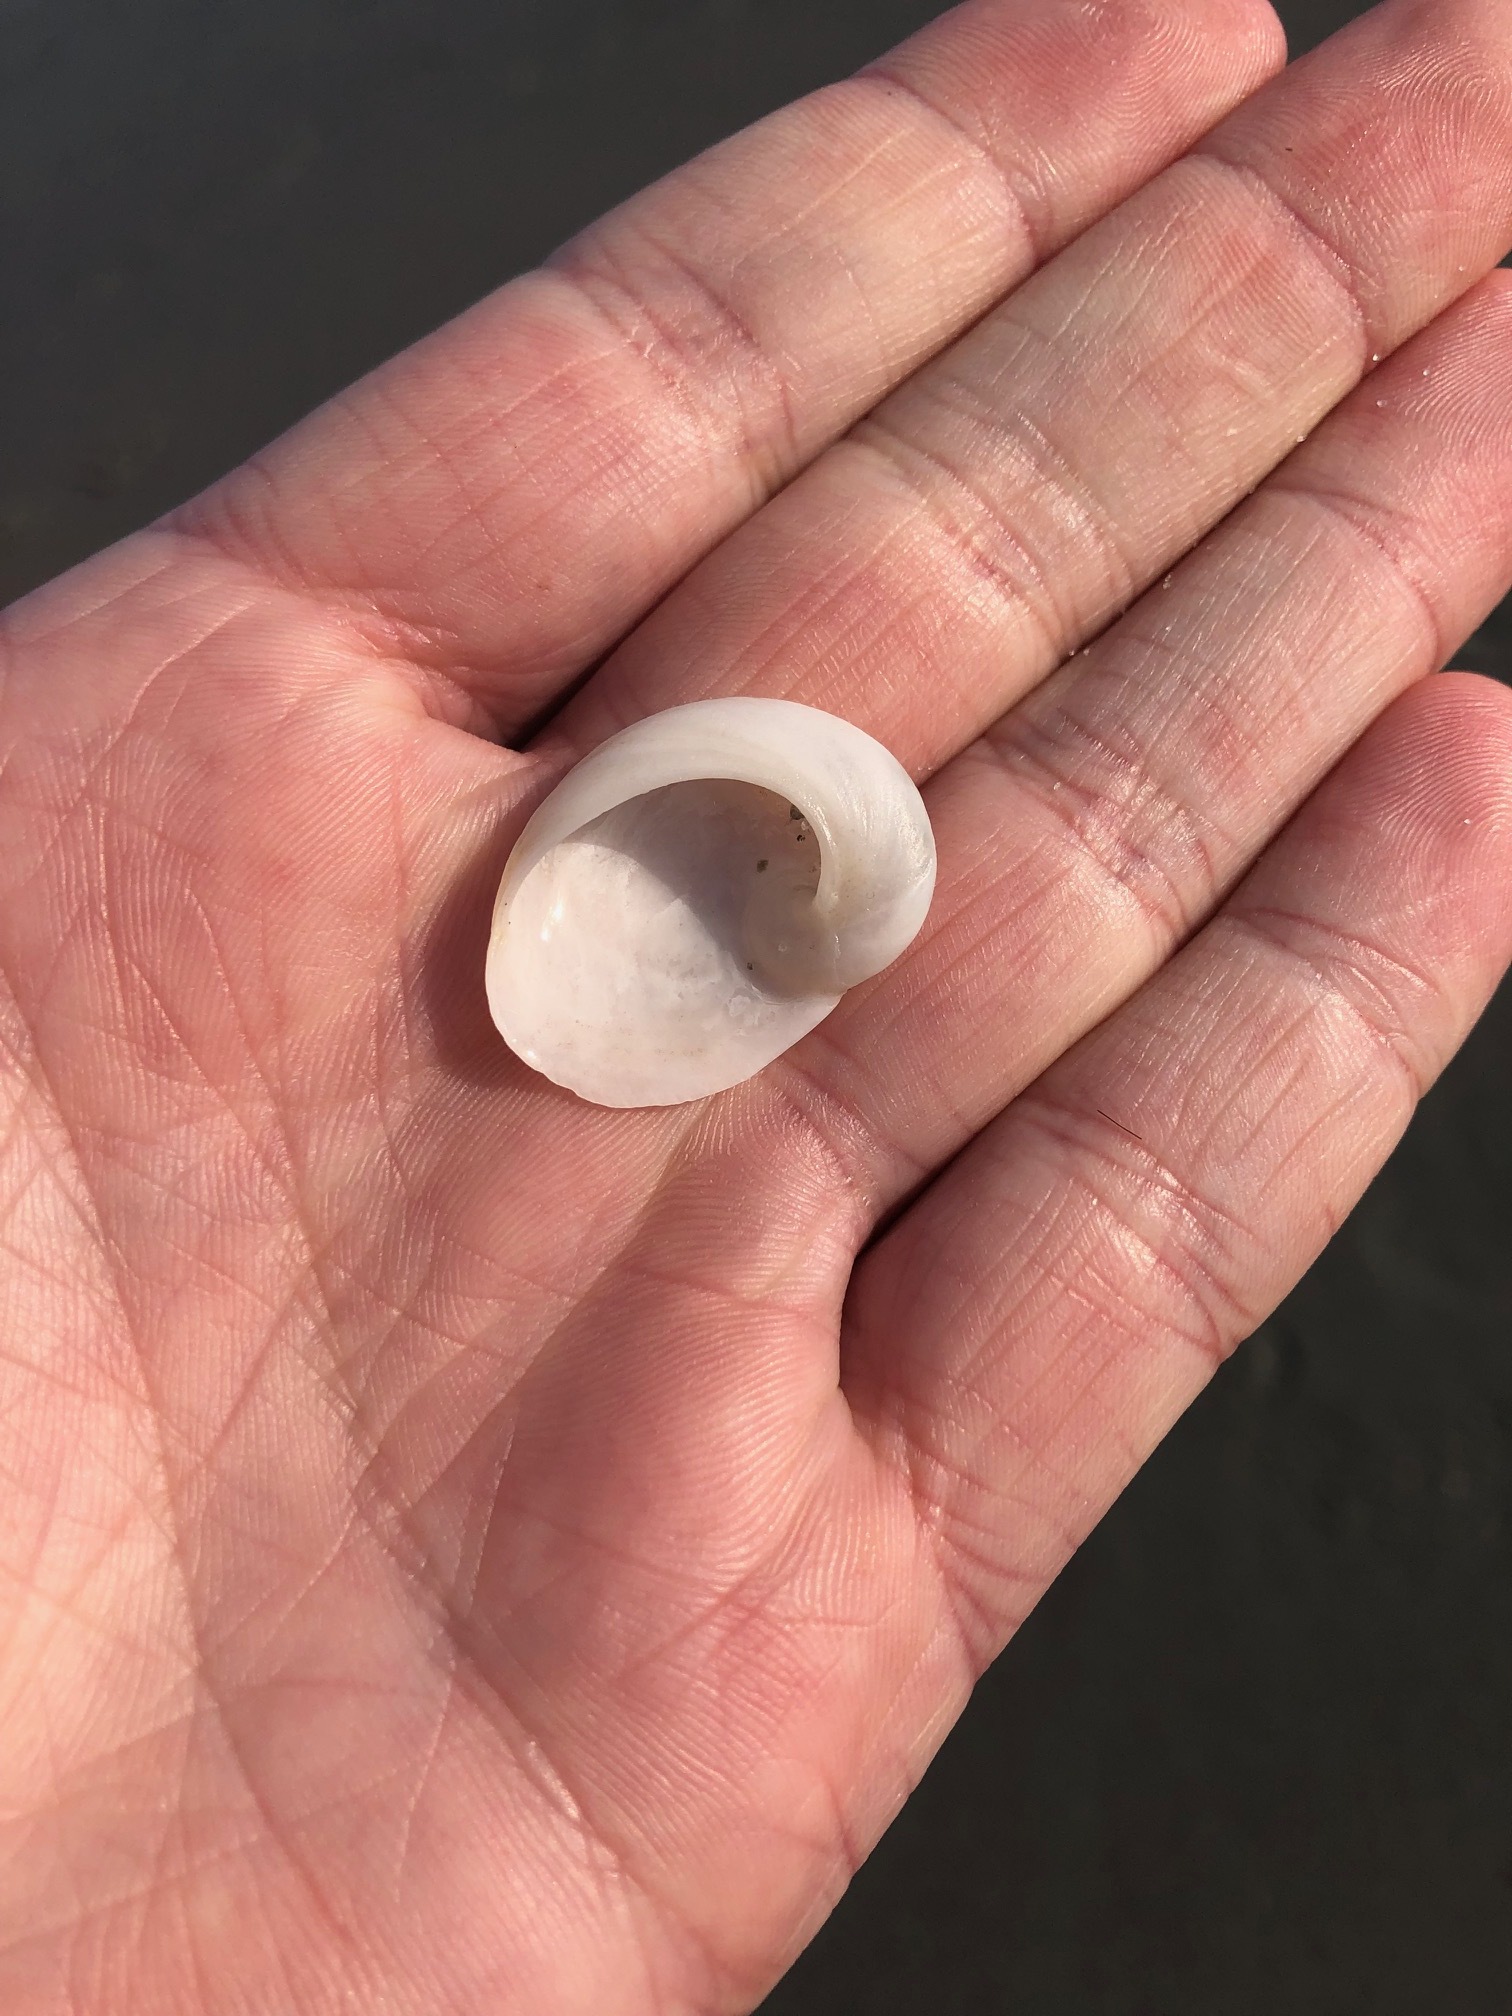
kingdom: Animalia
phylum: Mollusca
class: Gastropoda
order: Littorinimorpha
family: Naticidae
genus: Sinum
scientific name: Sinum perspectivum
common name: White baby ear
